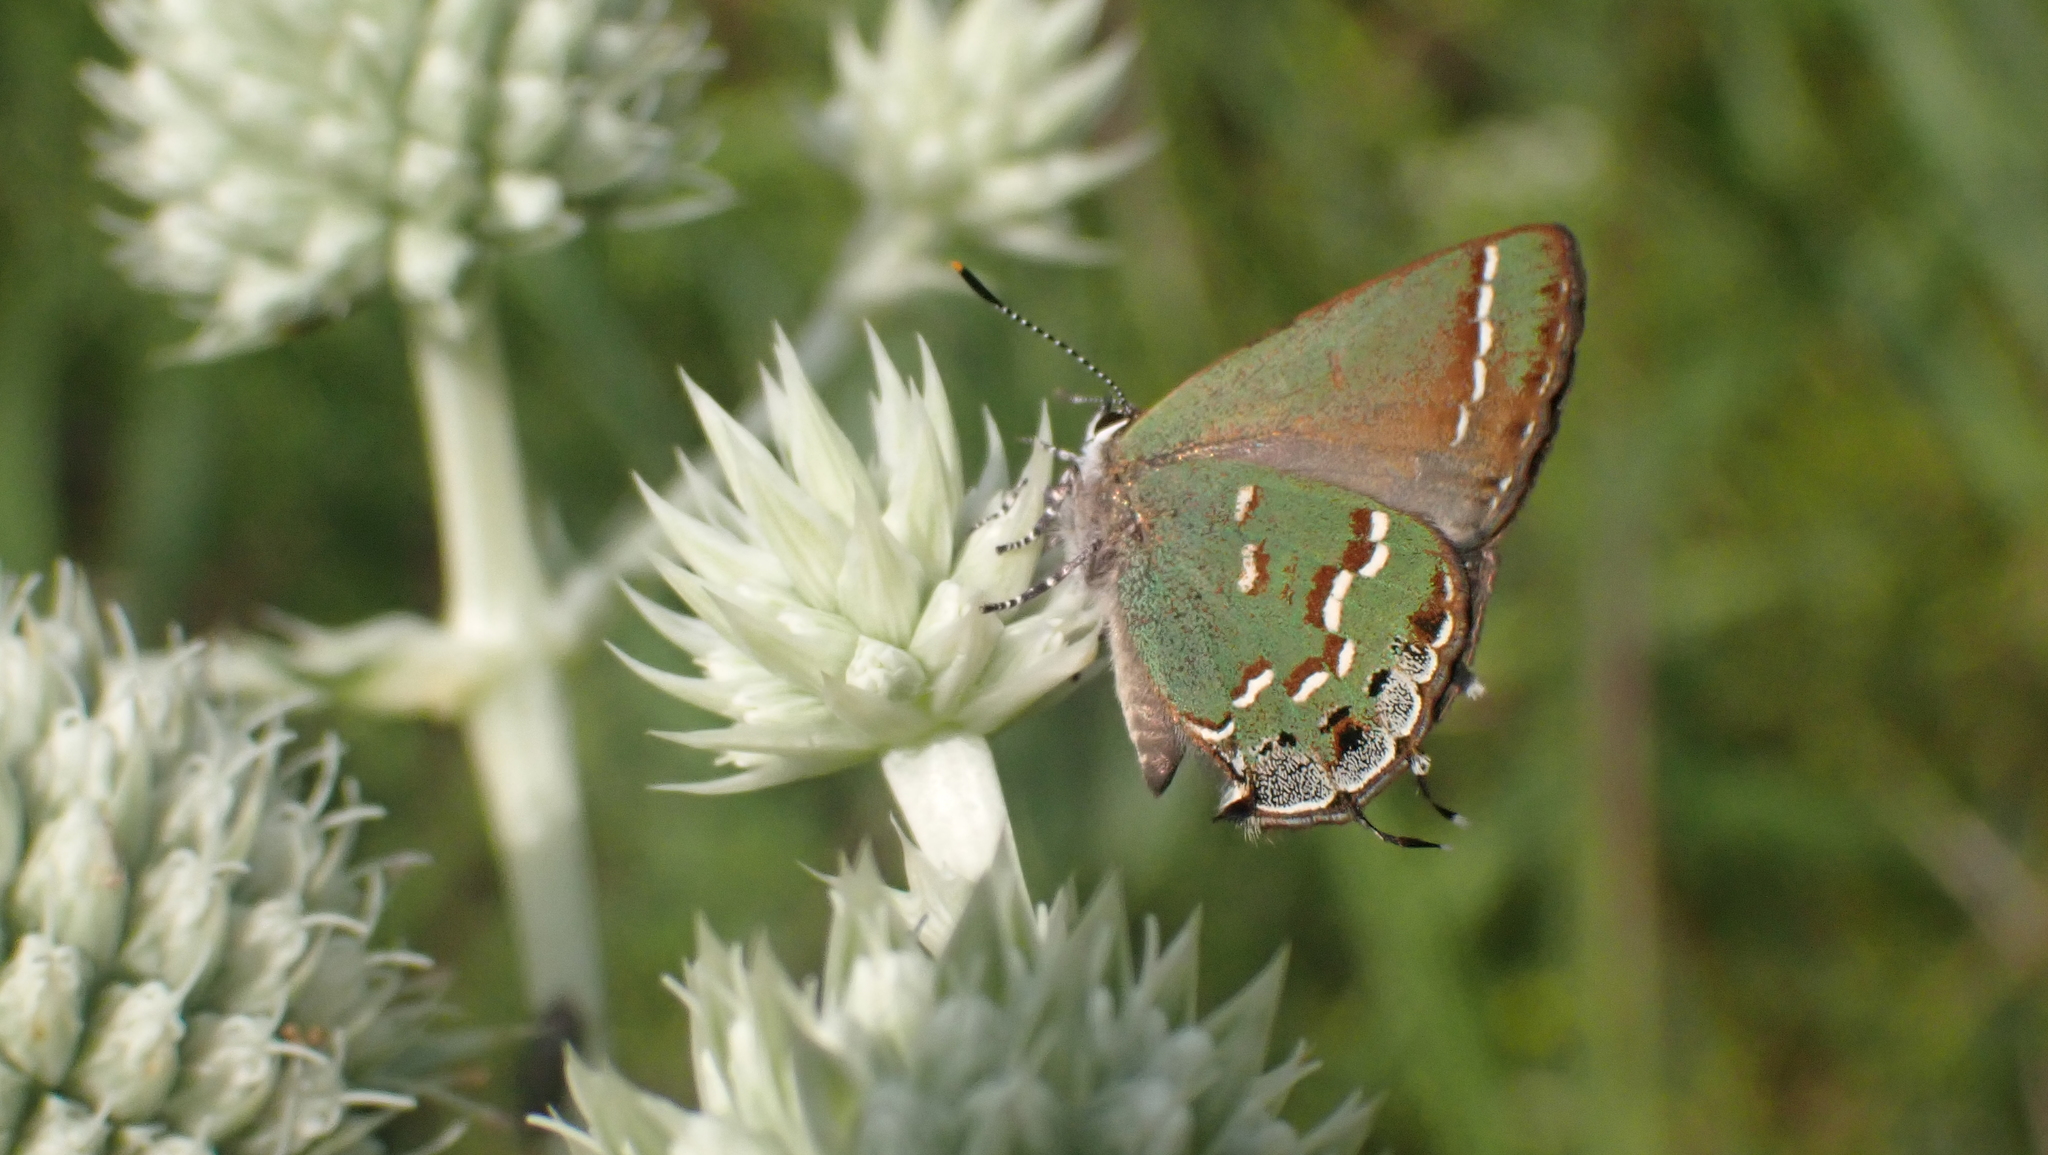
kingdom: Animalia
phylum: Arthropoda
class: Insecta
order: Lepidoptera
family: Lycaenidae
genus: Mitoura
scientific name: Mitoura gryneus
